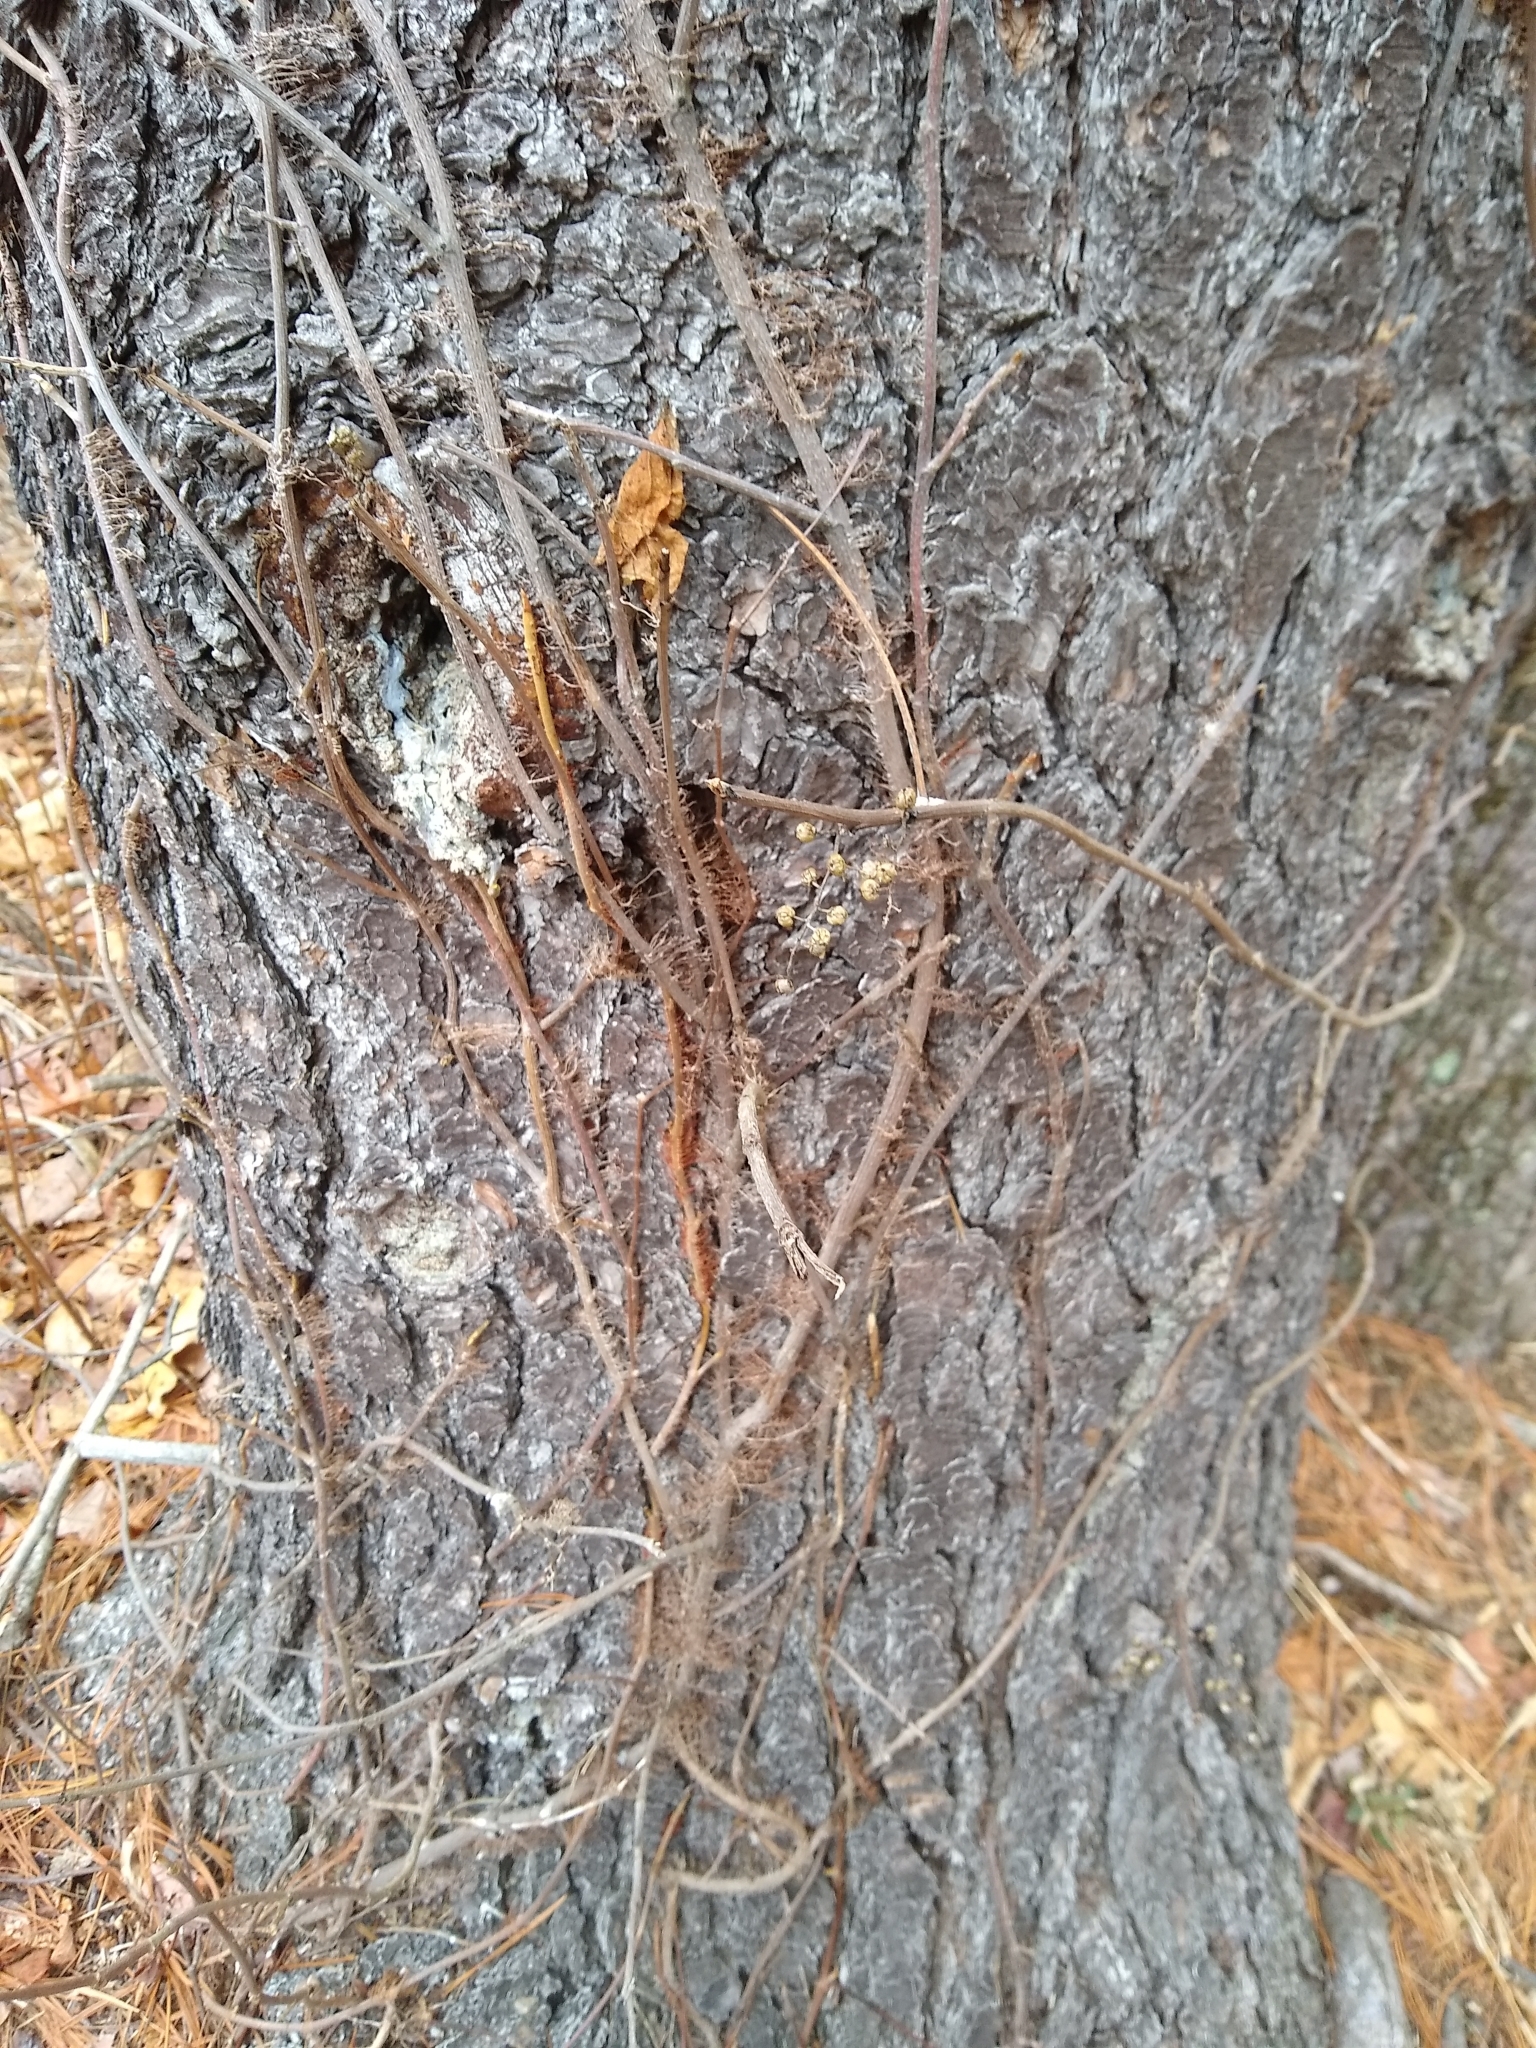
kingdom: Plantae
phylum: Tracheophyta
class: Magnoliopsida
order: Sapindales
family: Anacardiaceae
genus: Toxicodendron
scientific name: Toxicodendron radicans
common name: Poison ivy
